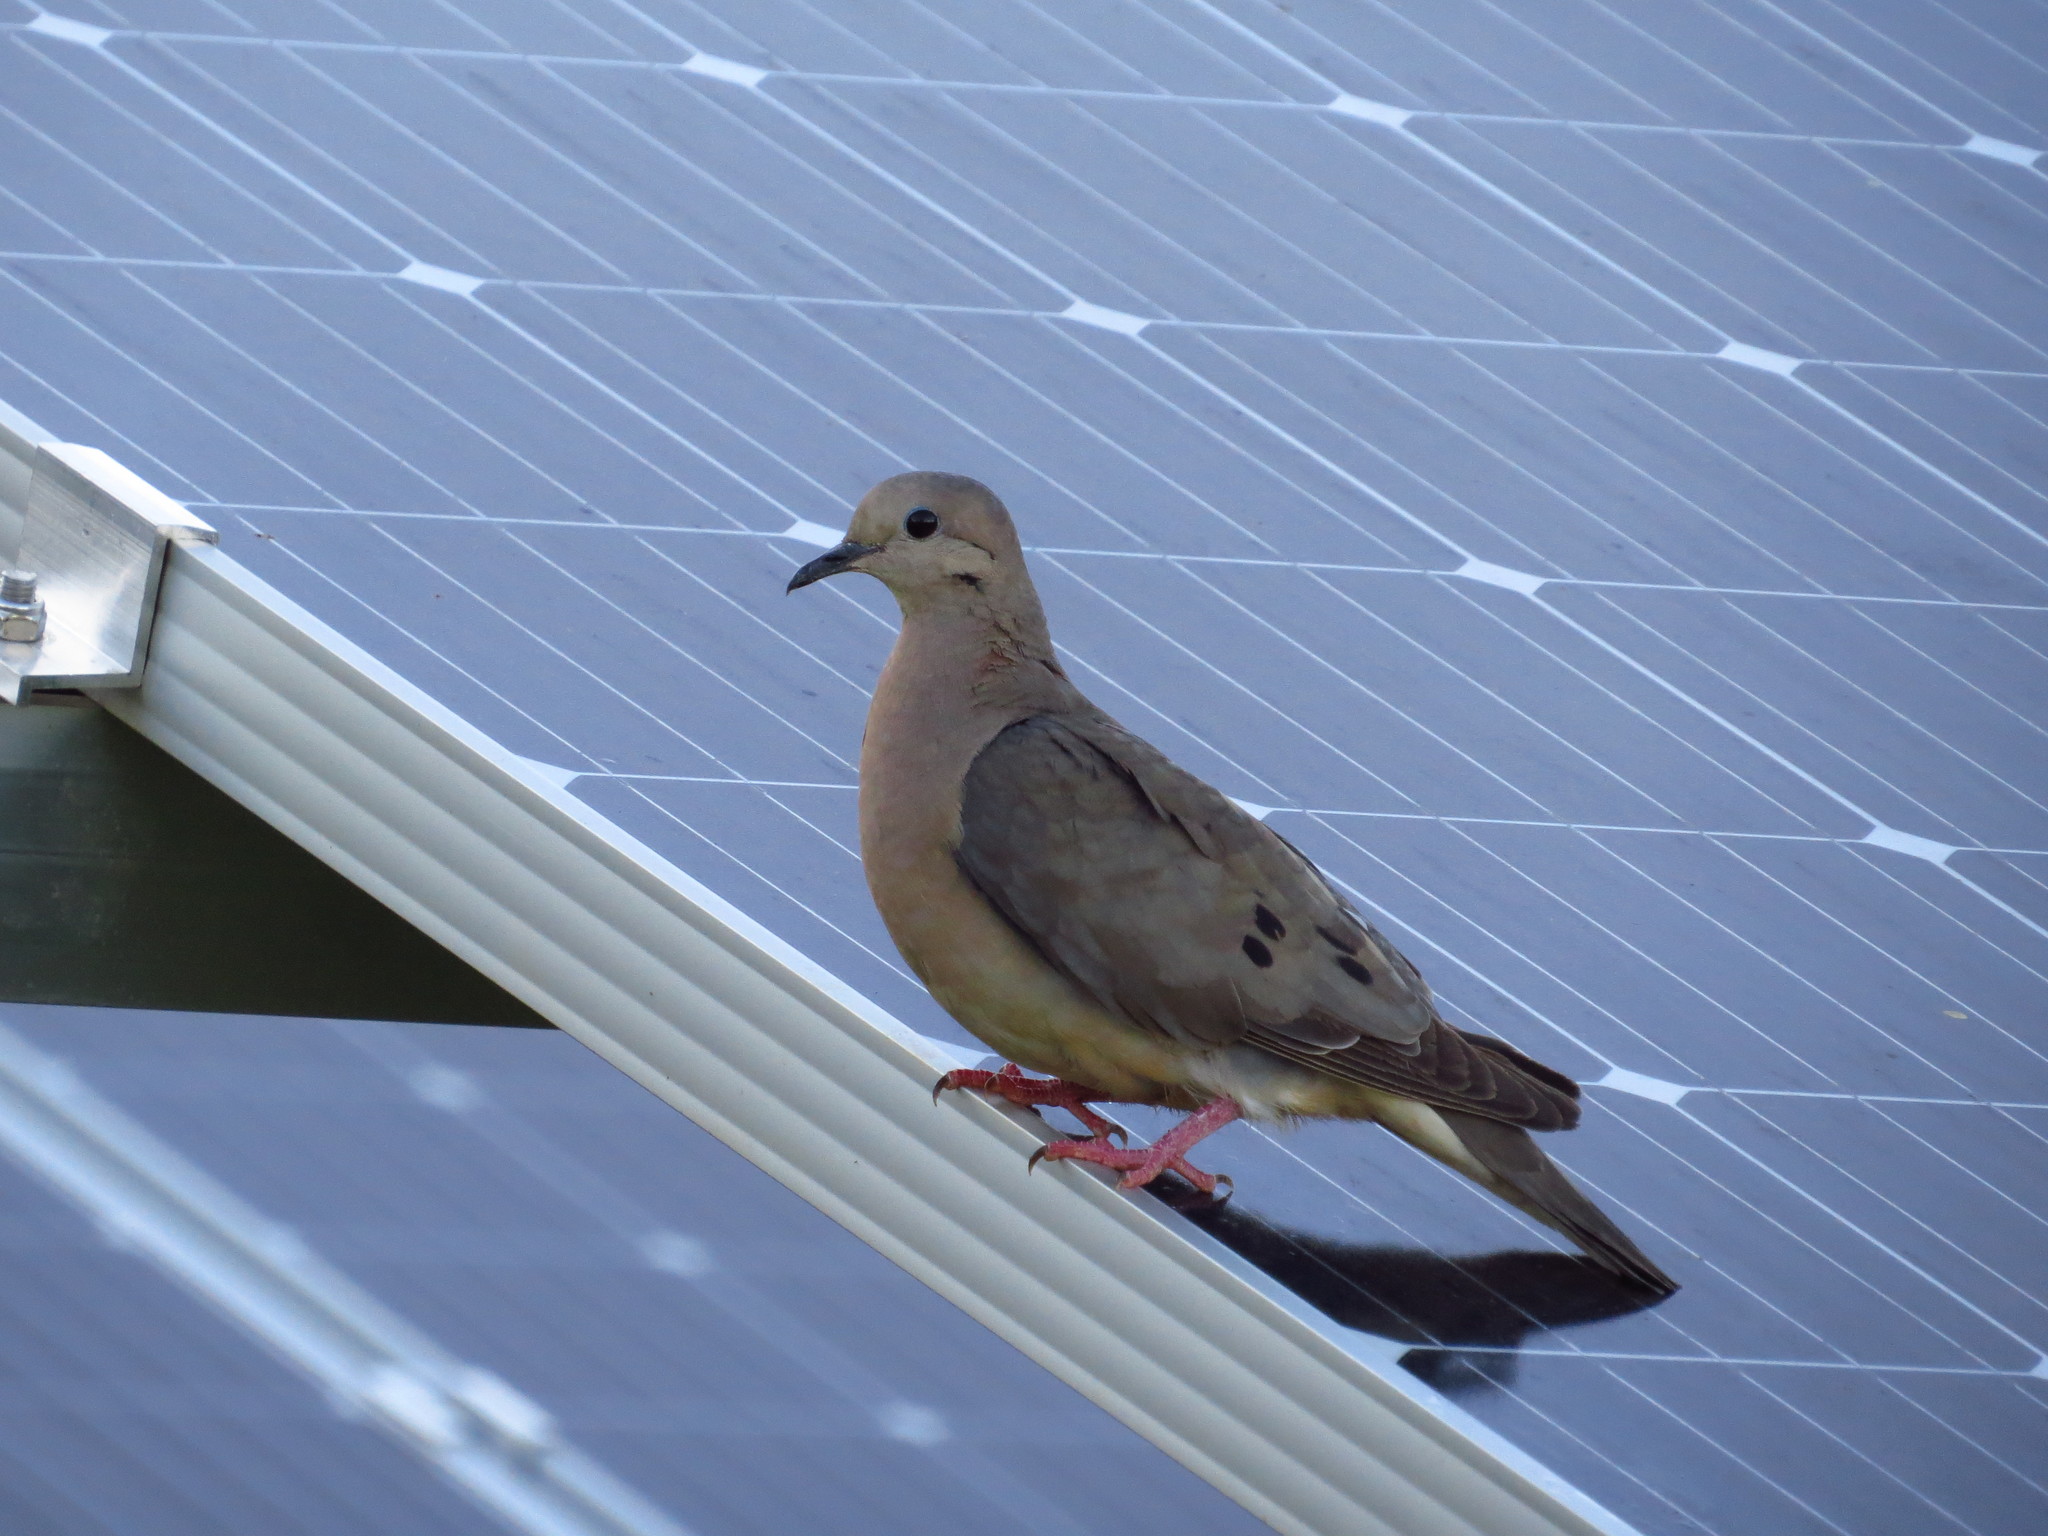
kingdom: Animalia
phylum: Chordata
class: Aves
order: Columbiformes
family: Columbidae
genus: Zenaida
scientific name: Zenaida auriculata
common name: Eared dove
